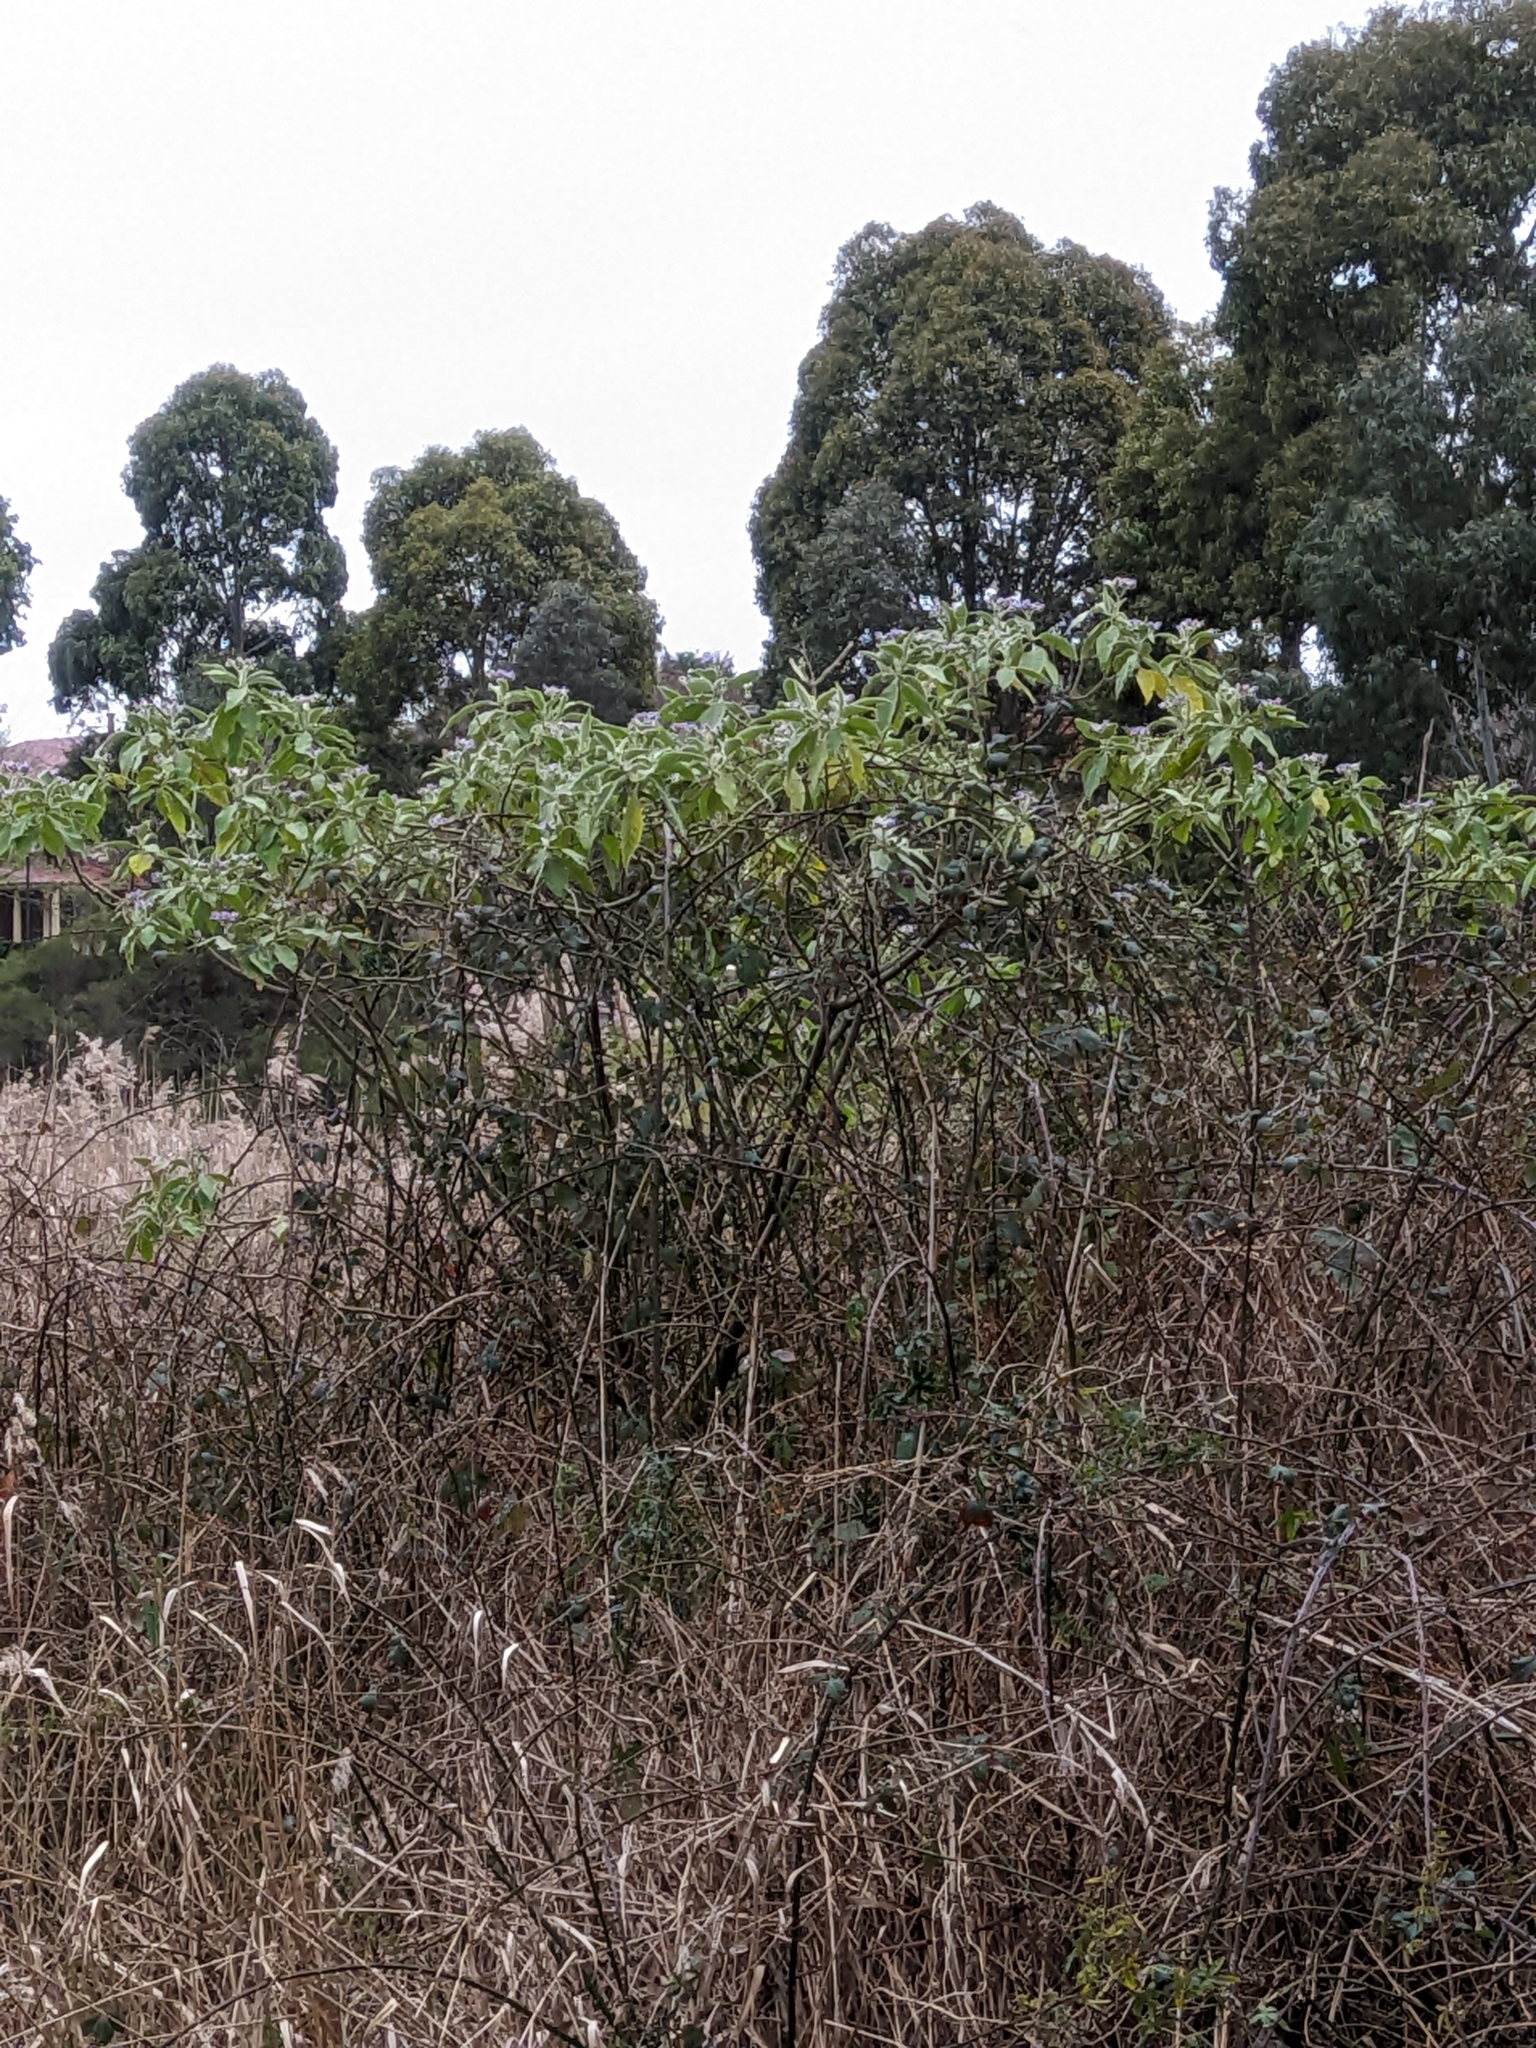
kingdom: Plantae
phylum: Tracheophyta
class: Magnoliopsida
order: Solanales
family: Solanaceae
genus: Solanum
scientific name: Solanum mauritianum
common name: Earleaf nightshade
